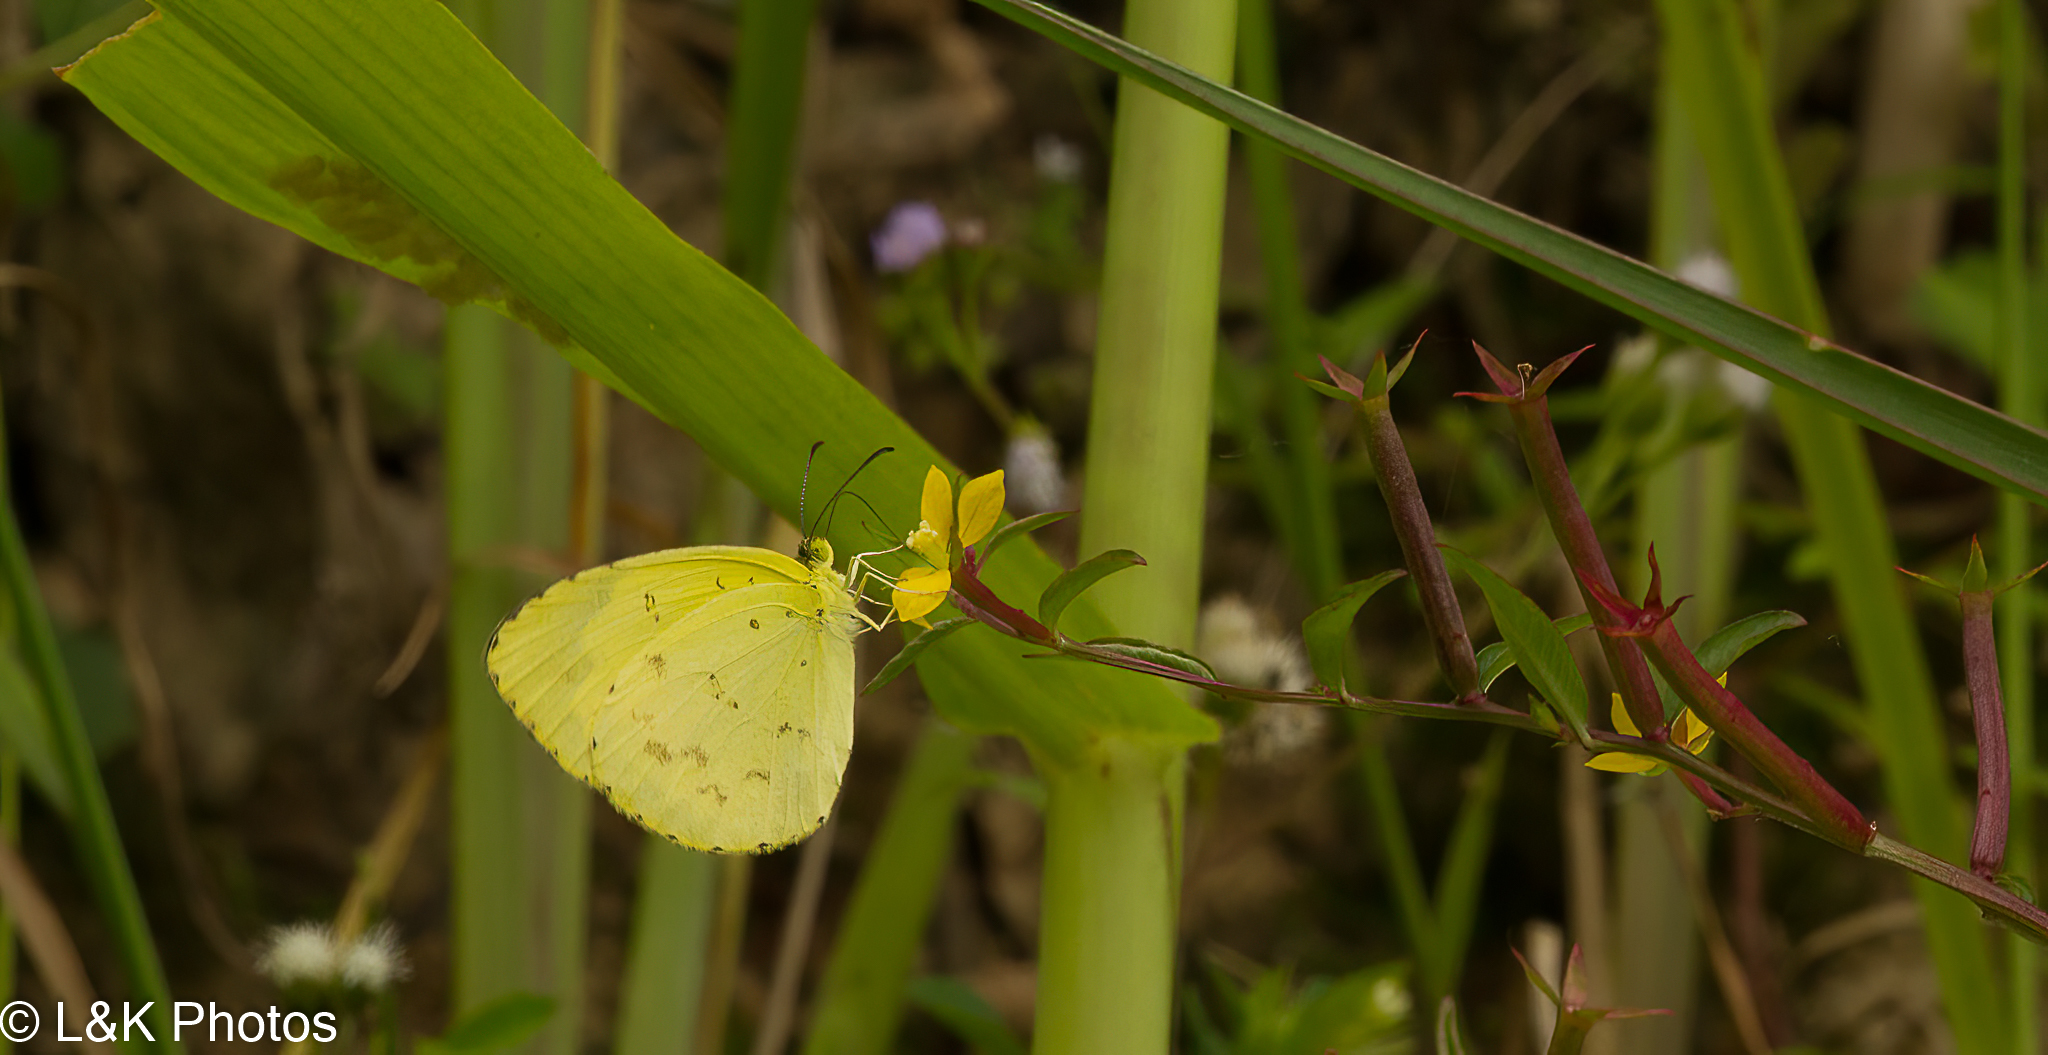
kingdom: Animalia
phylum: Arthropoda
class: Insecta
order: Lepidoptera
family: Pieridae
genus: Eurema
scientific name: Eurema hecabe
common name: Pale grass yellow
